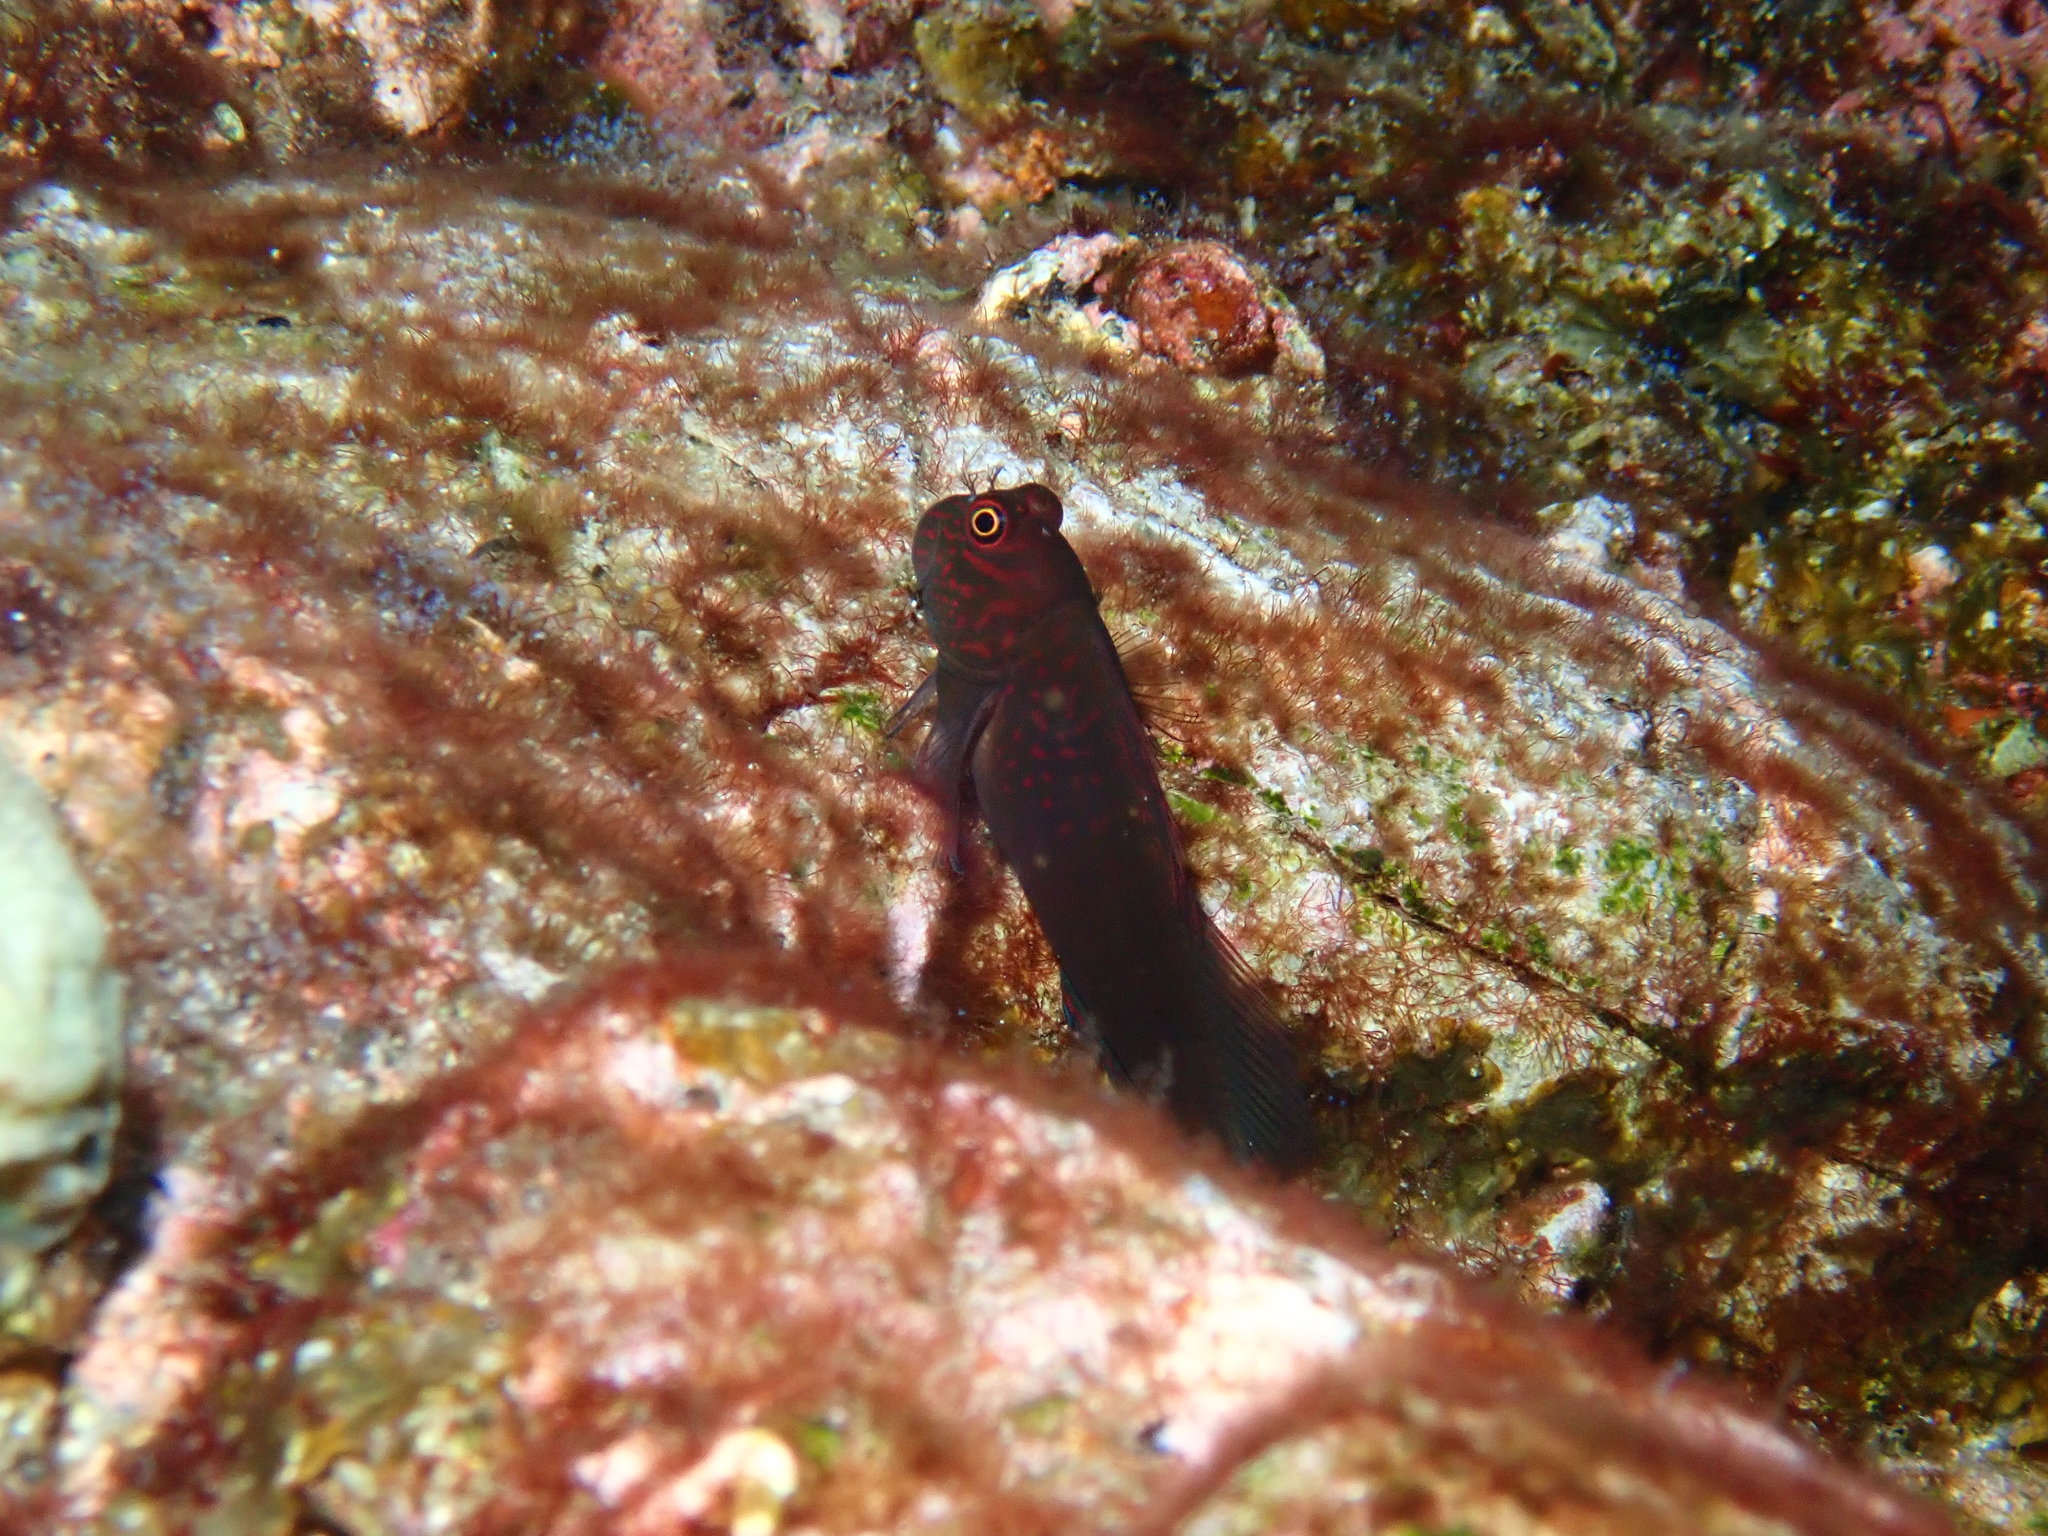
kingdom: Animalia
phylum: Chordata
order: Perciformes
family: Blenniidae
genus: Cirripectes
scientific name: Cirripectes filamentosus
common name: Filamentous blenny
